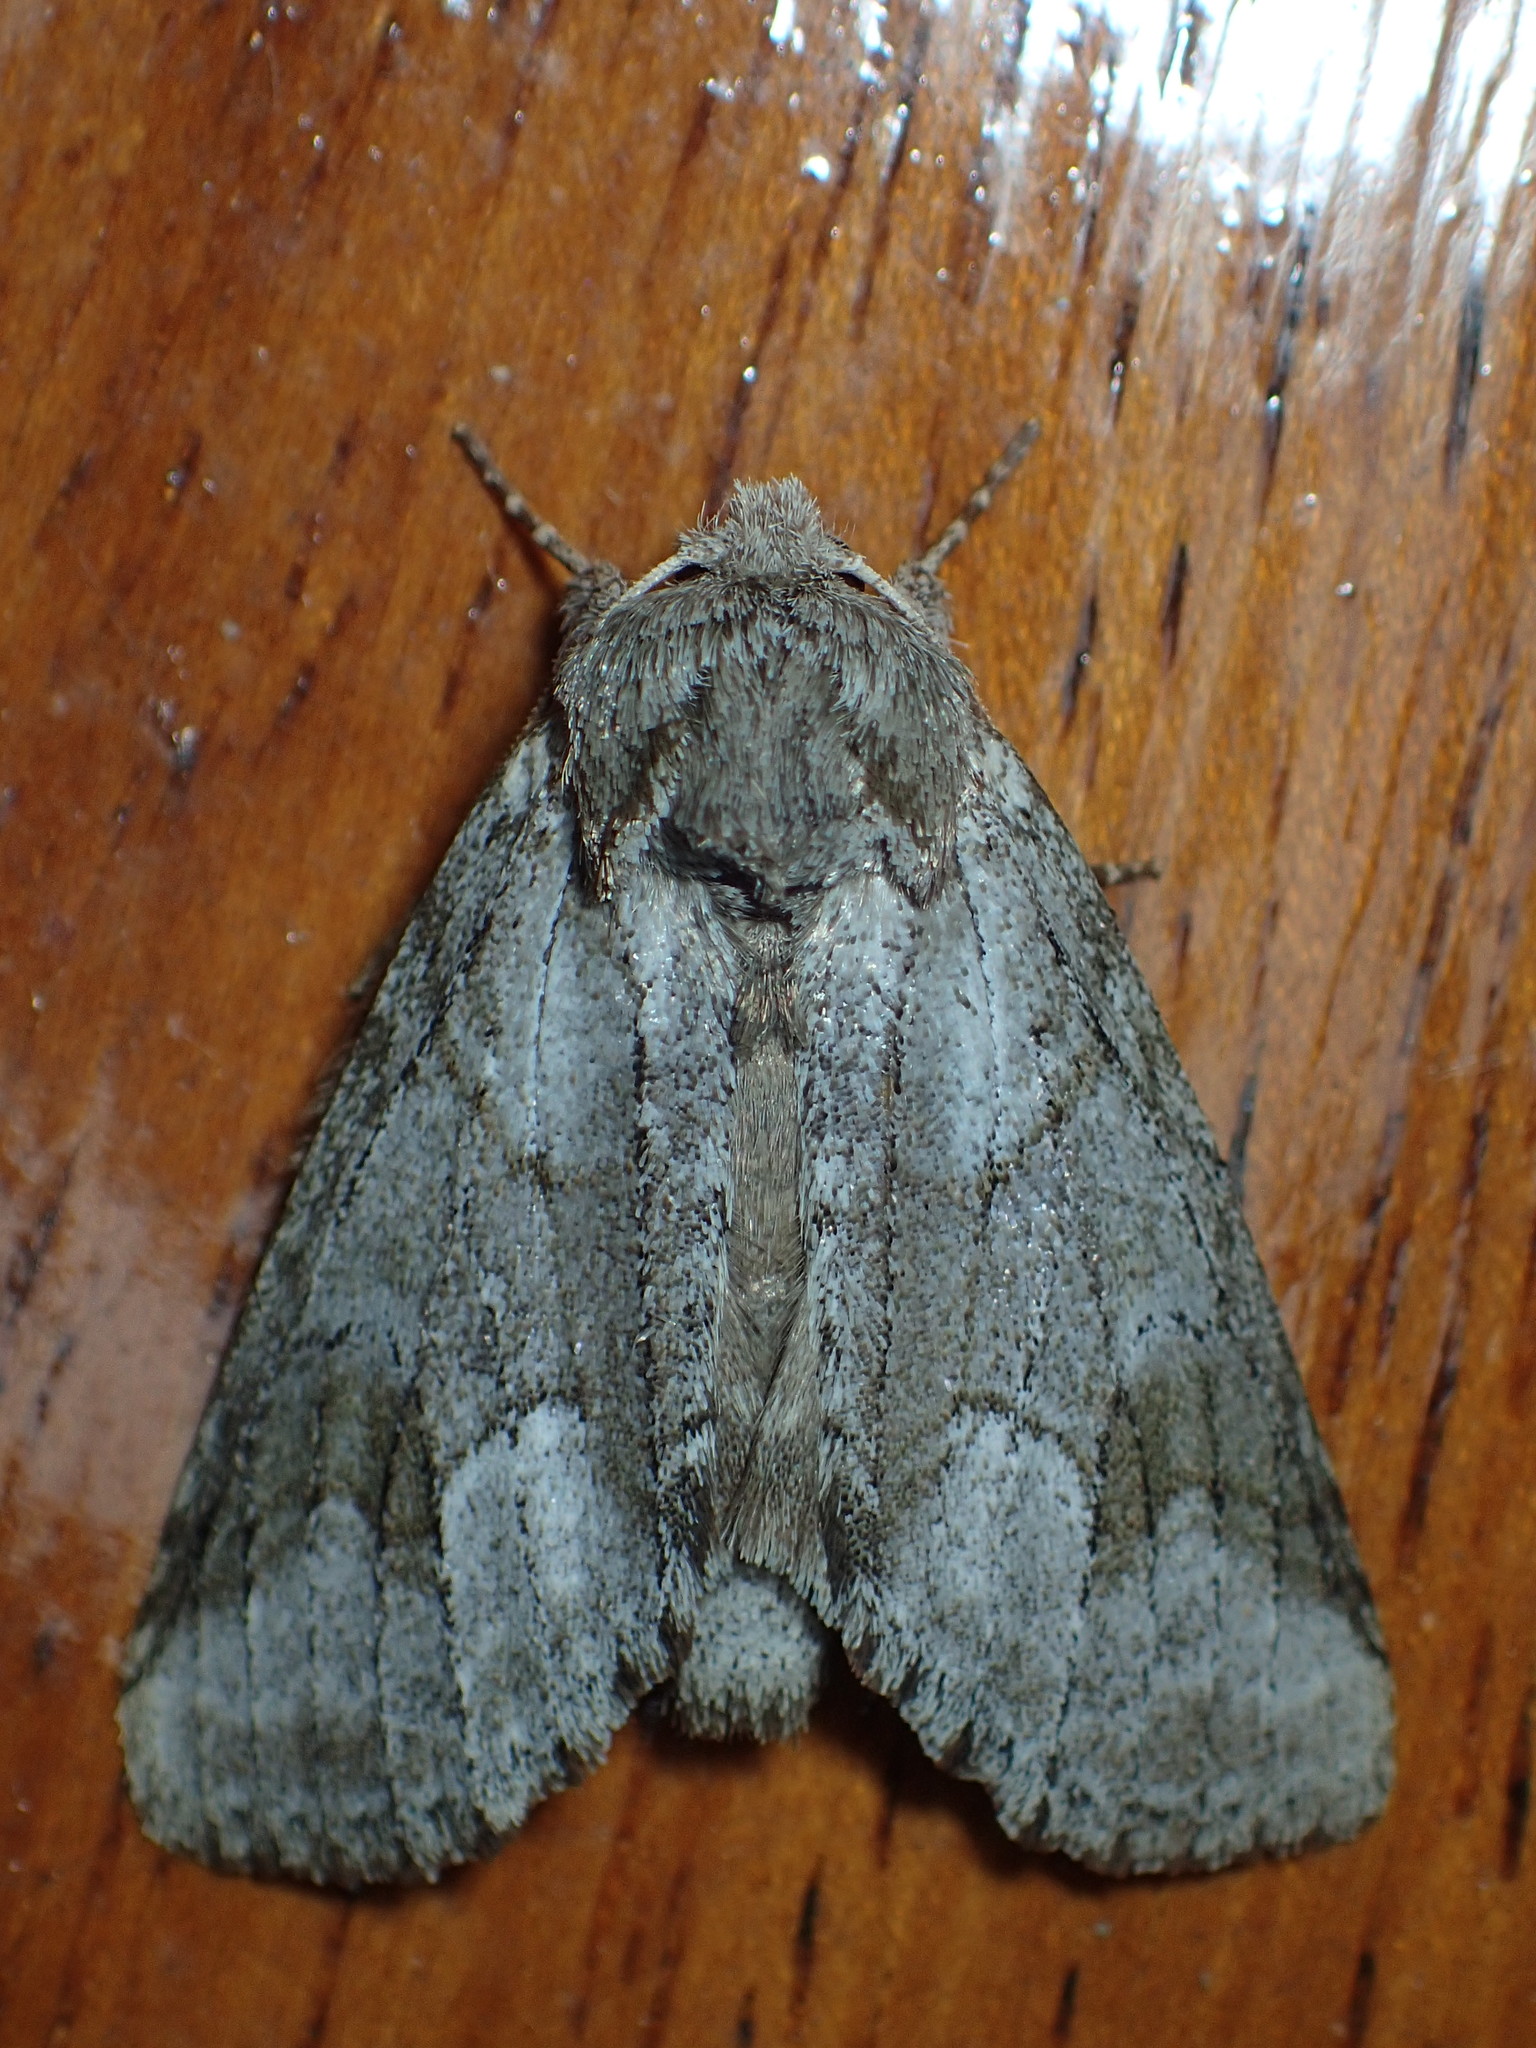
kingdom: Animalia
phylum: Arthropoda
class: Insecta
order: Lepidoptera
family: Notodontidae
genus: Lochmaeus
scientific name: Lochmaeus bilineata
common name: Double-lined prominent
